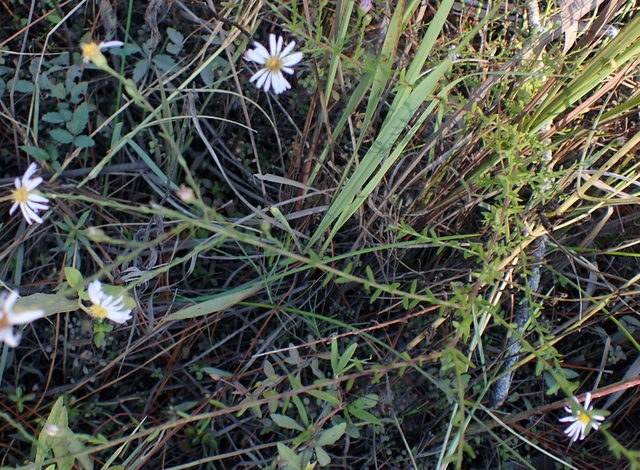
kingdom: Plantae
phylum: Tracheophyta
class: Magnoliopsida
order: Asterales
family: Asteraceae
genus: Symphyotrichum
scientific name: Symphyotrichum dumosum
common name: Bushy aster
